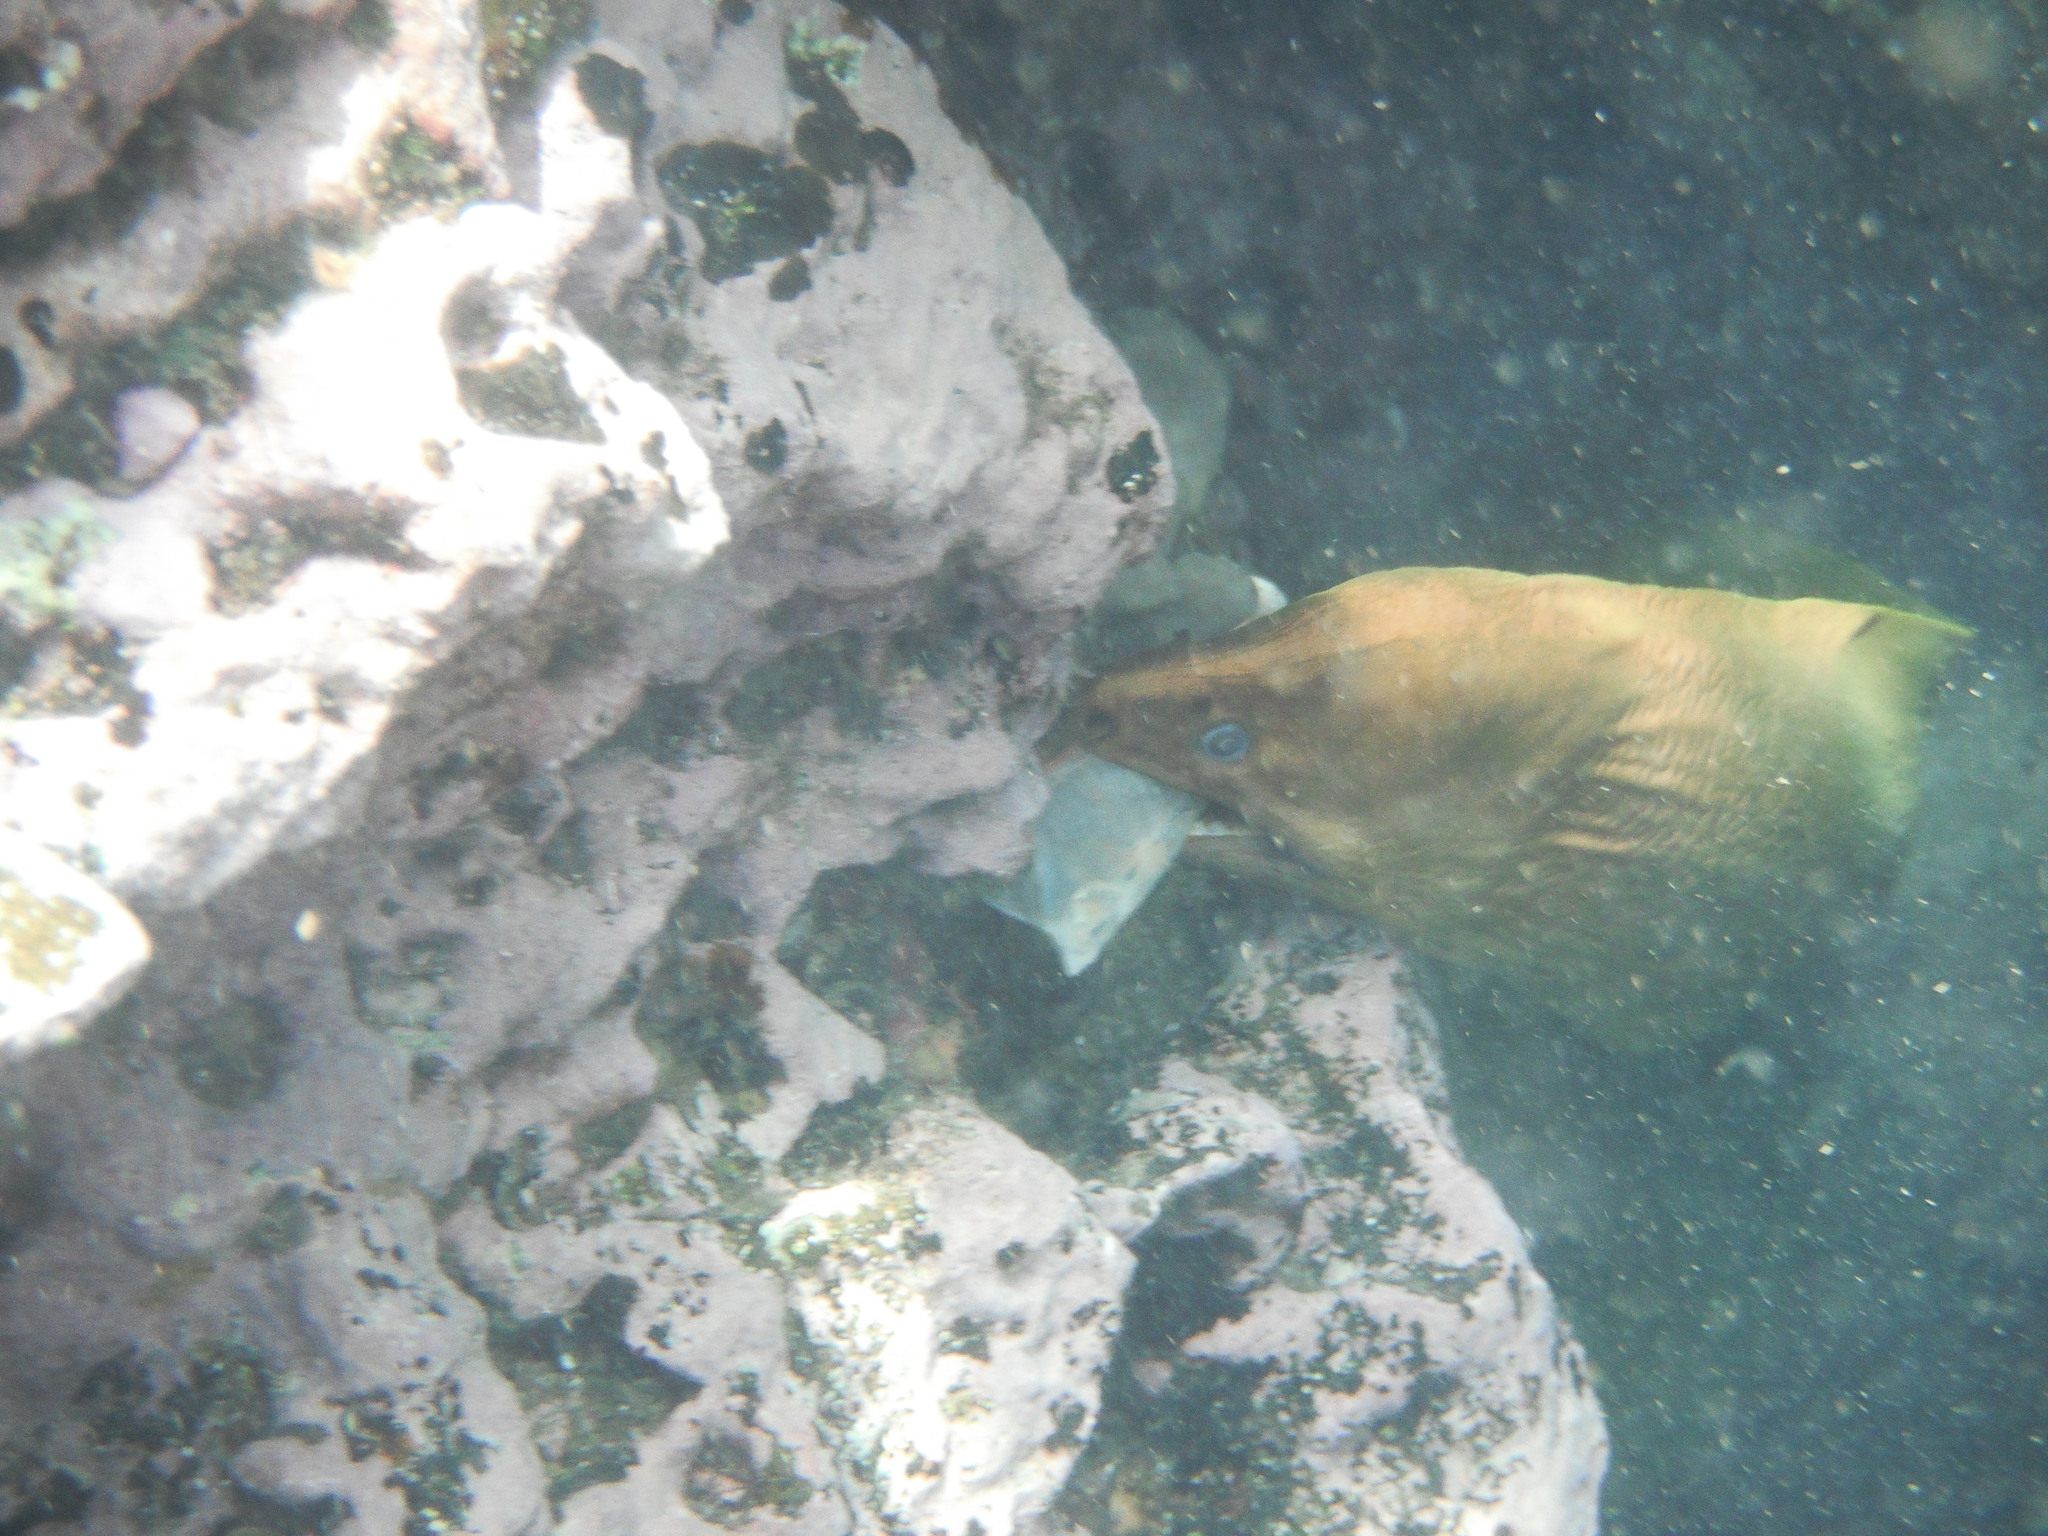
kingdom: Animalia
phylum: Chordata
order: Anguilliformes
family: Muraenidae
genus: Gymnothorax
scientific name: Gymnothorax prasinus
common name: Yellow moray
